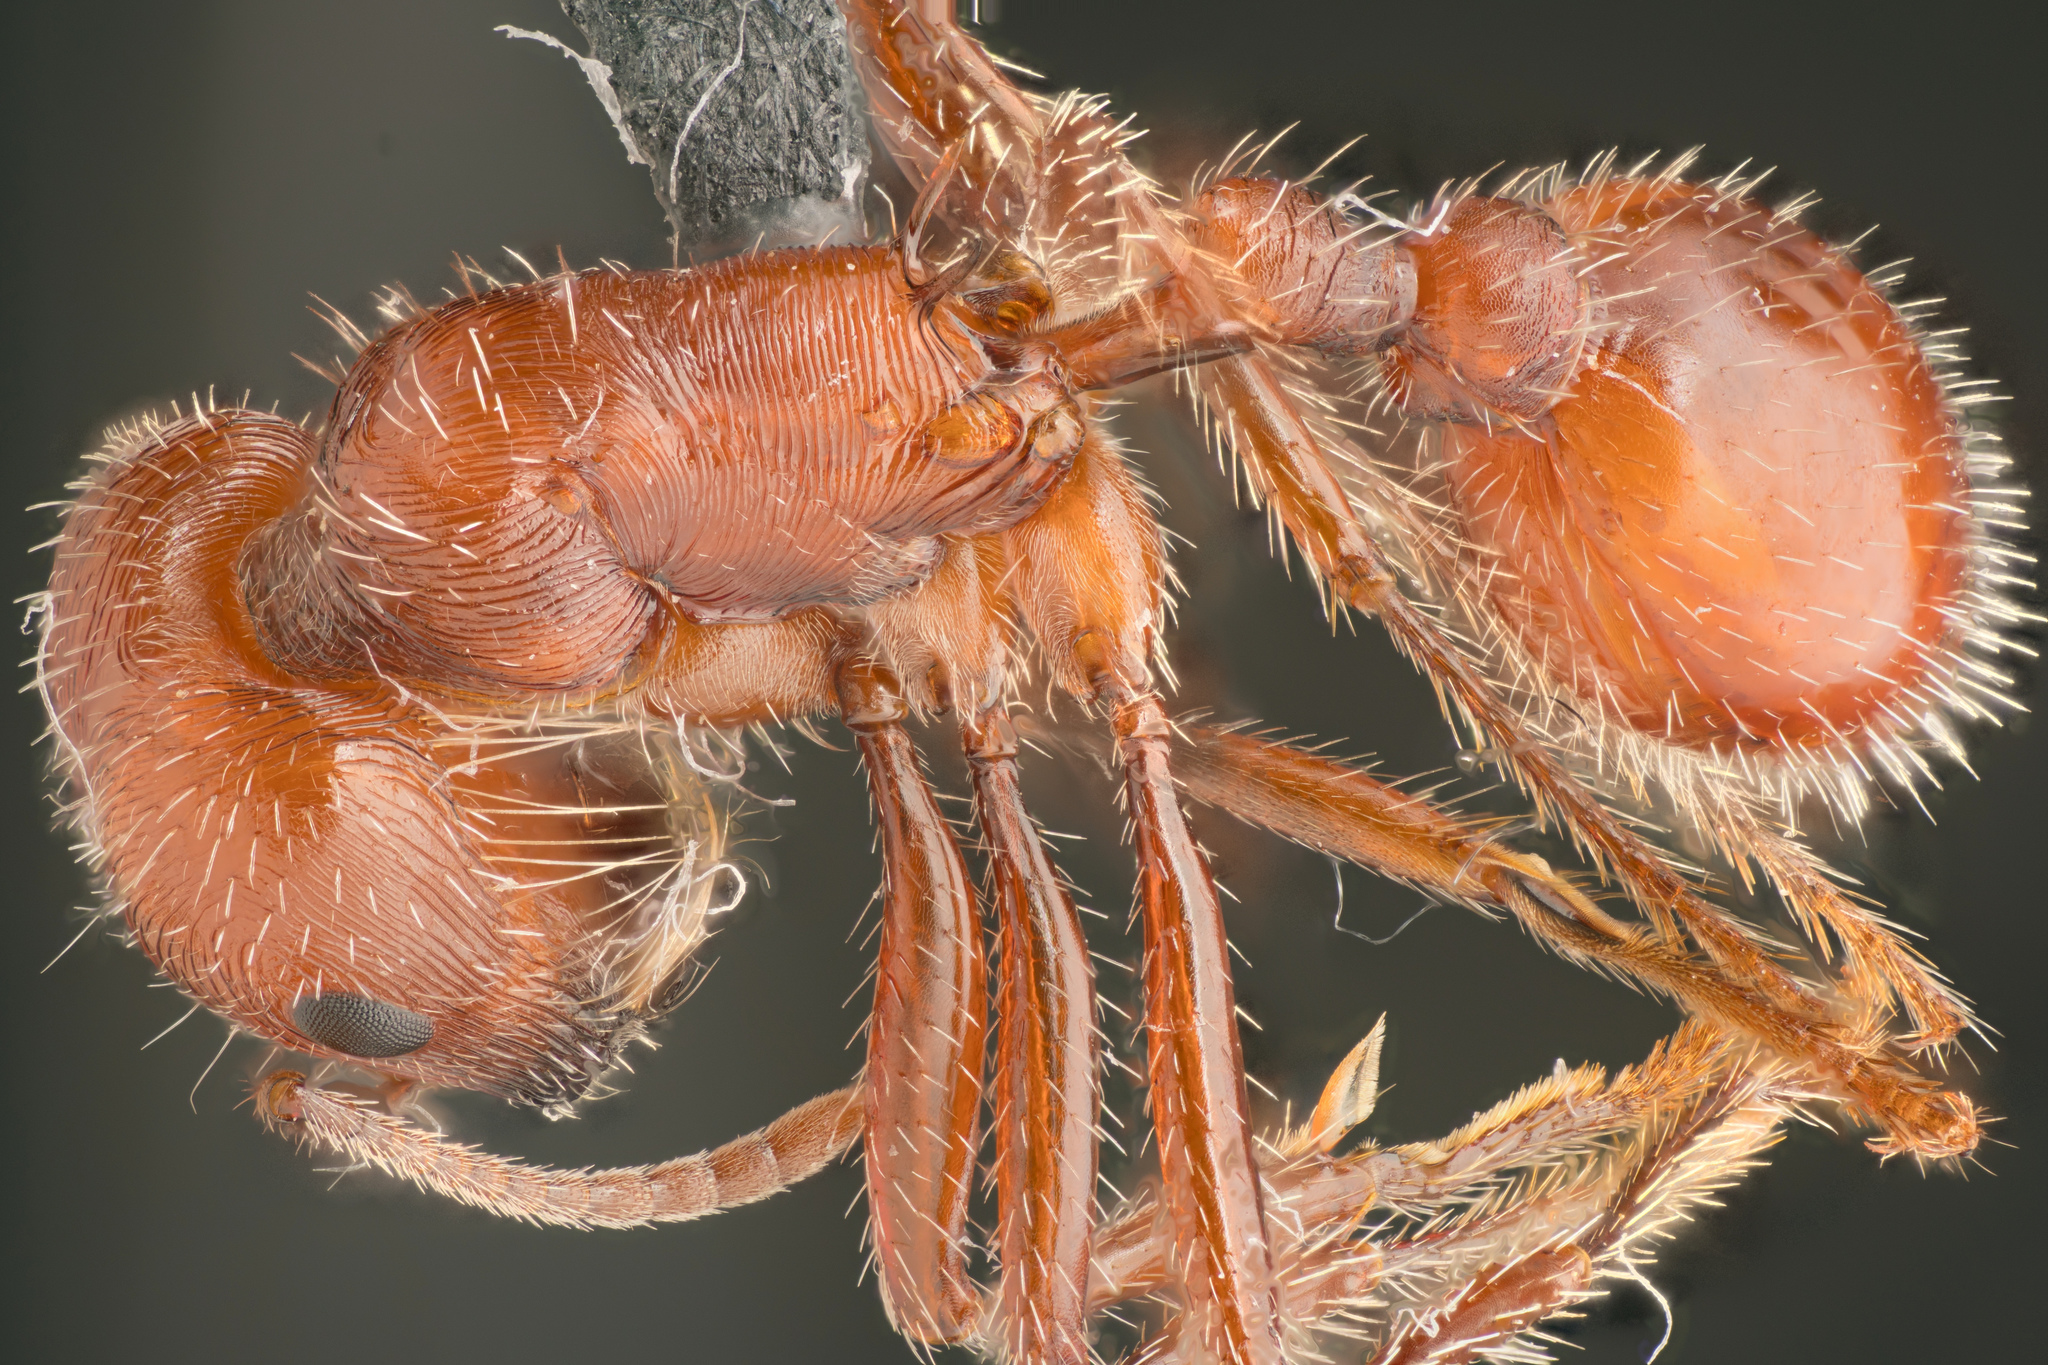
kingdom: Animalia
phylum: Arthropoda
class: Insecta
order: Hymenoptera
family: Formicidae
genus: Pogonomyrmex
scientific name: Pogonomyrmex subnitidus
